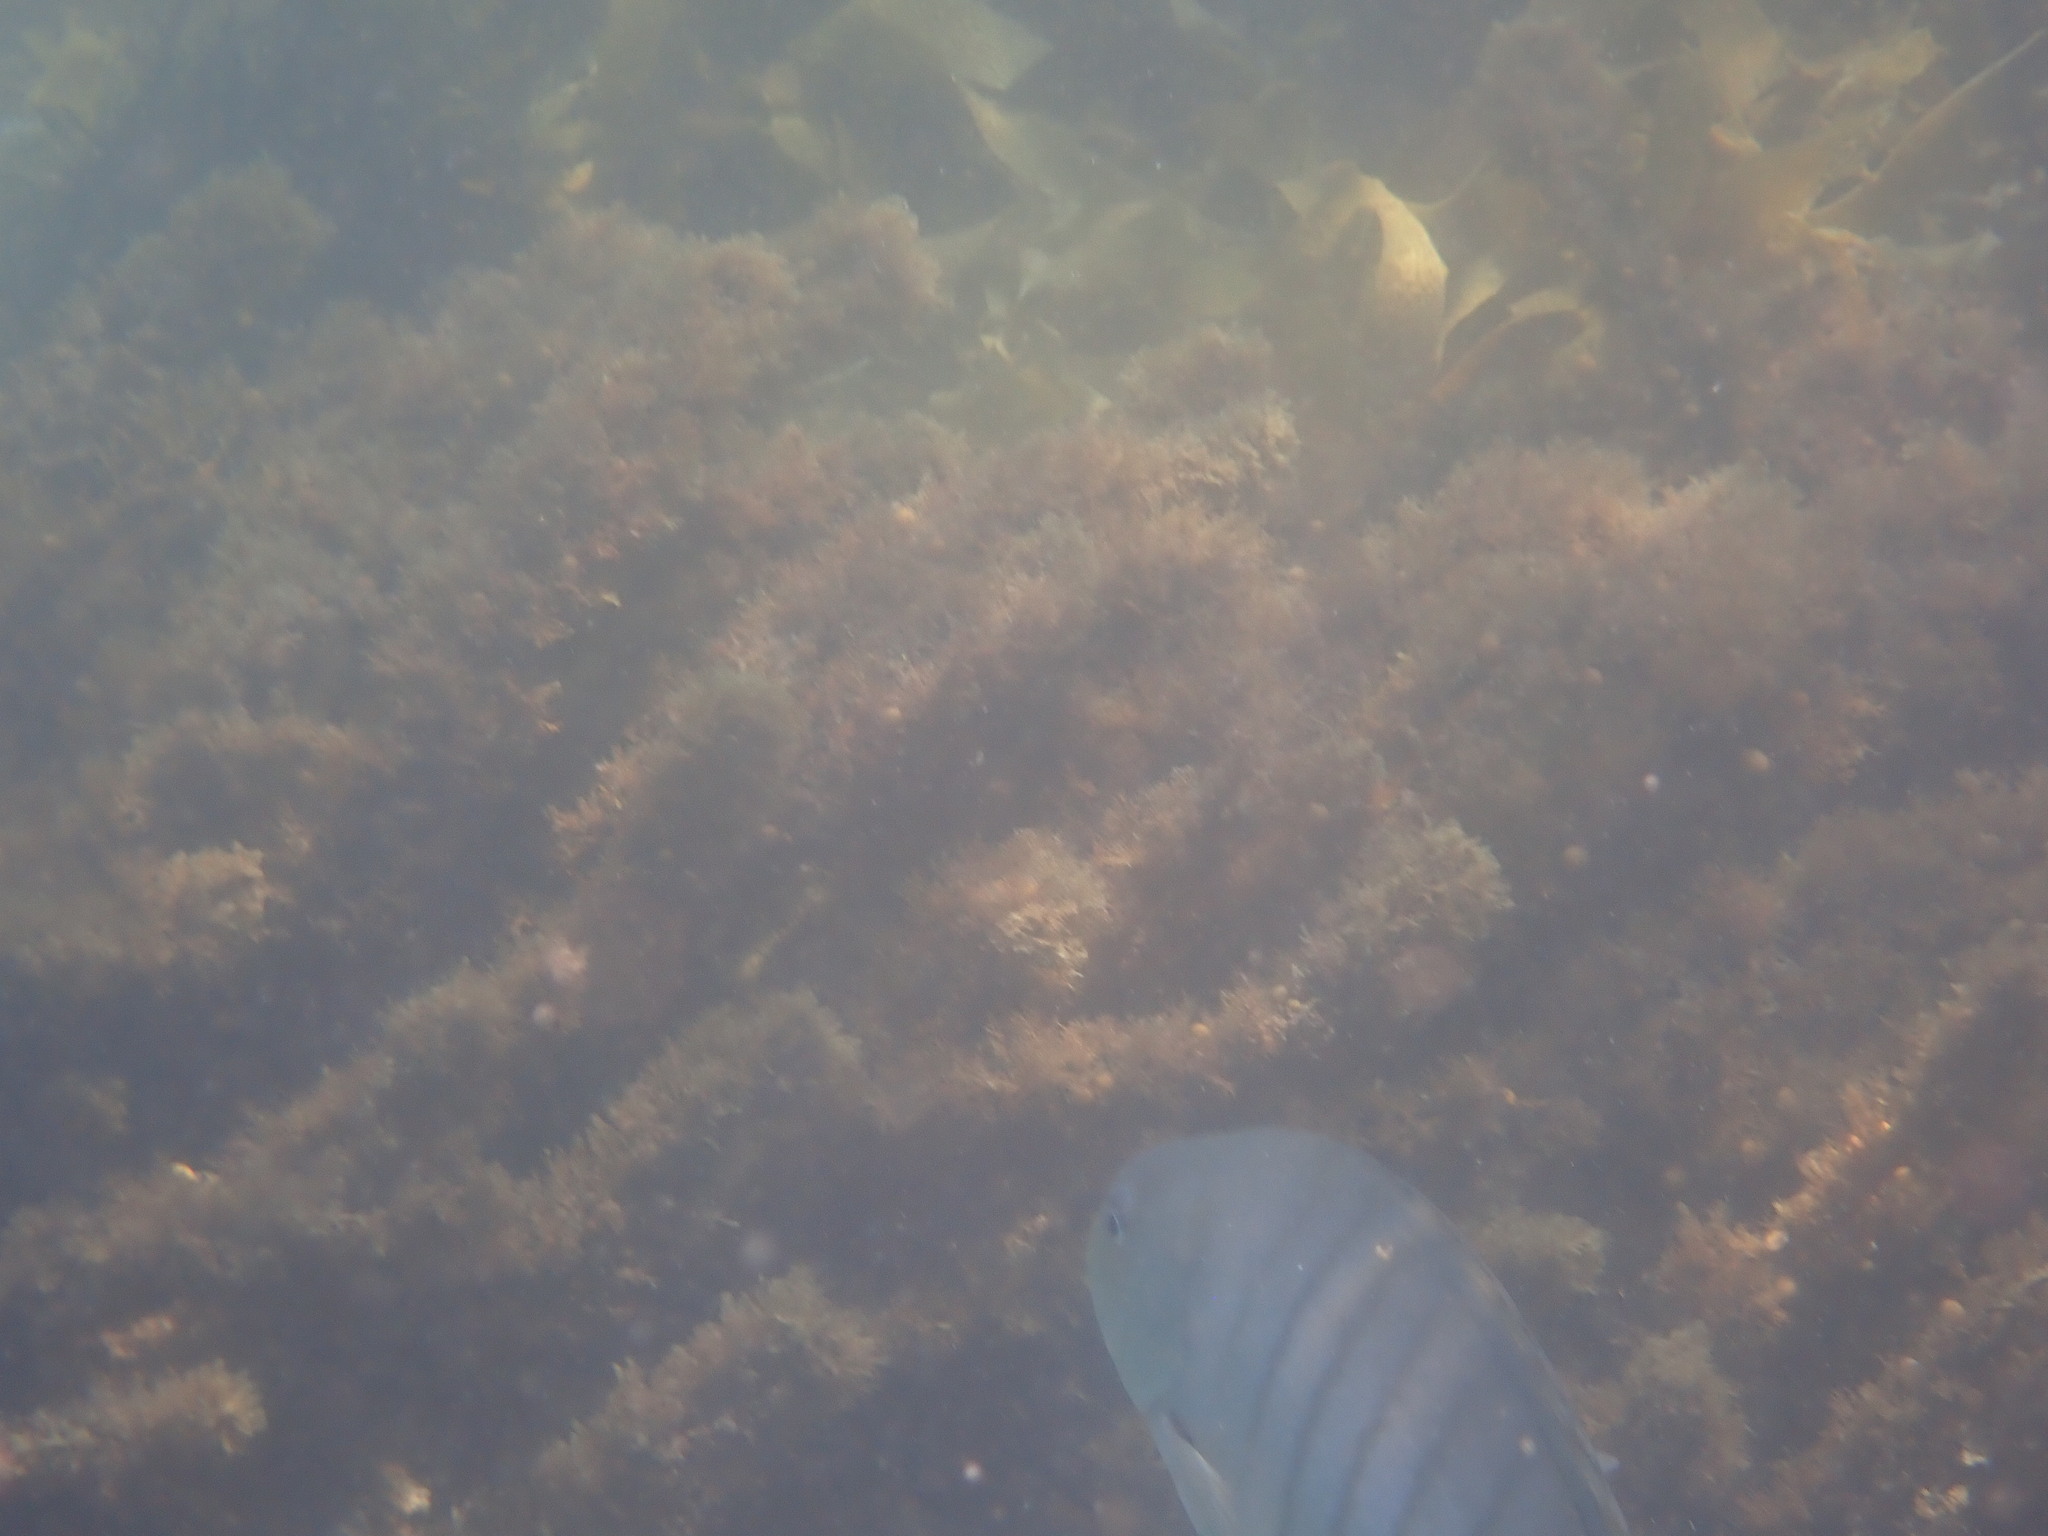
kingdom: Animalia
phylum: Chordata
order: Perciformes
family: Kyphosidae
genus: Girella
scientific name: Girella tricuspidata
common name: Parore
